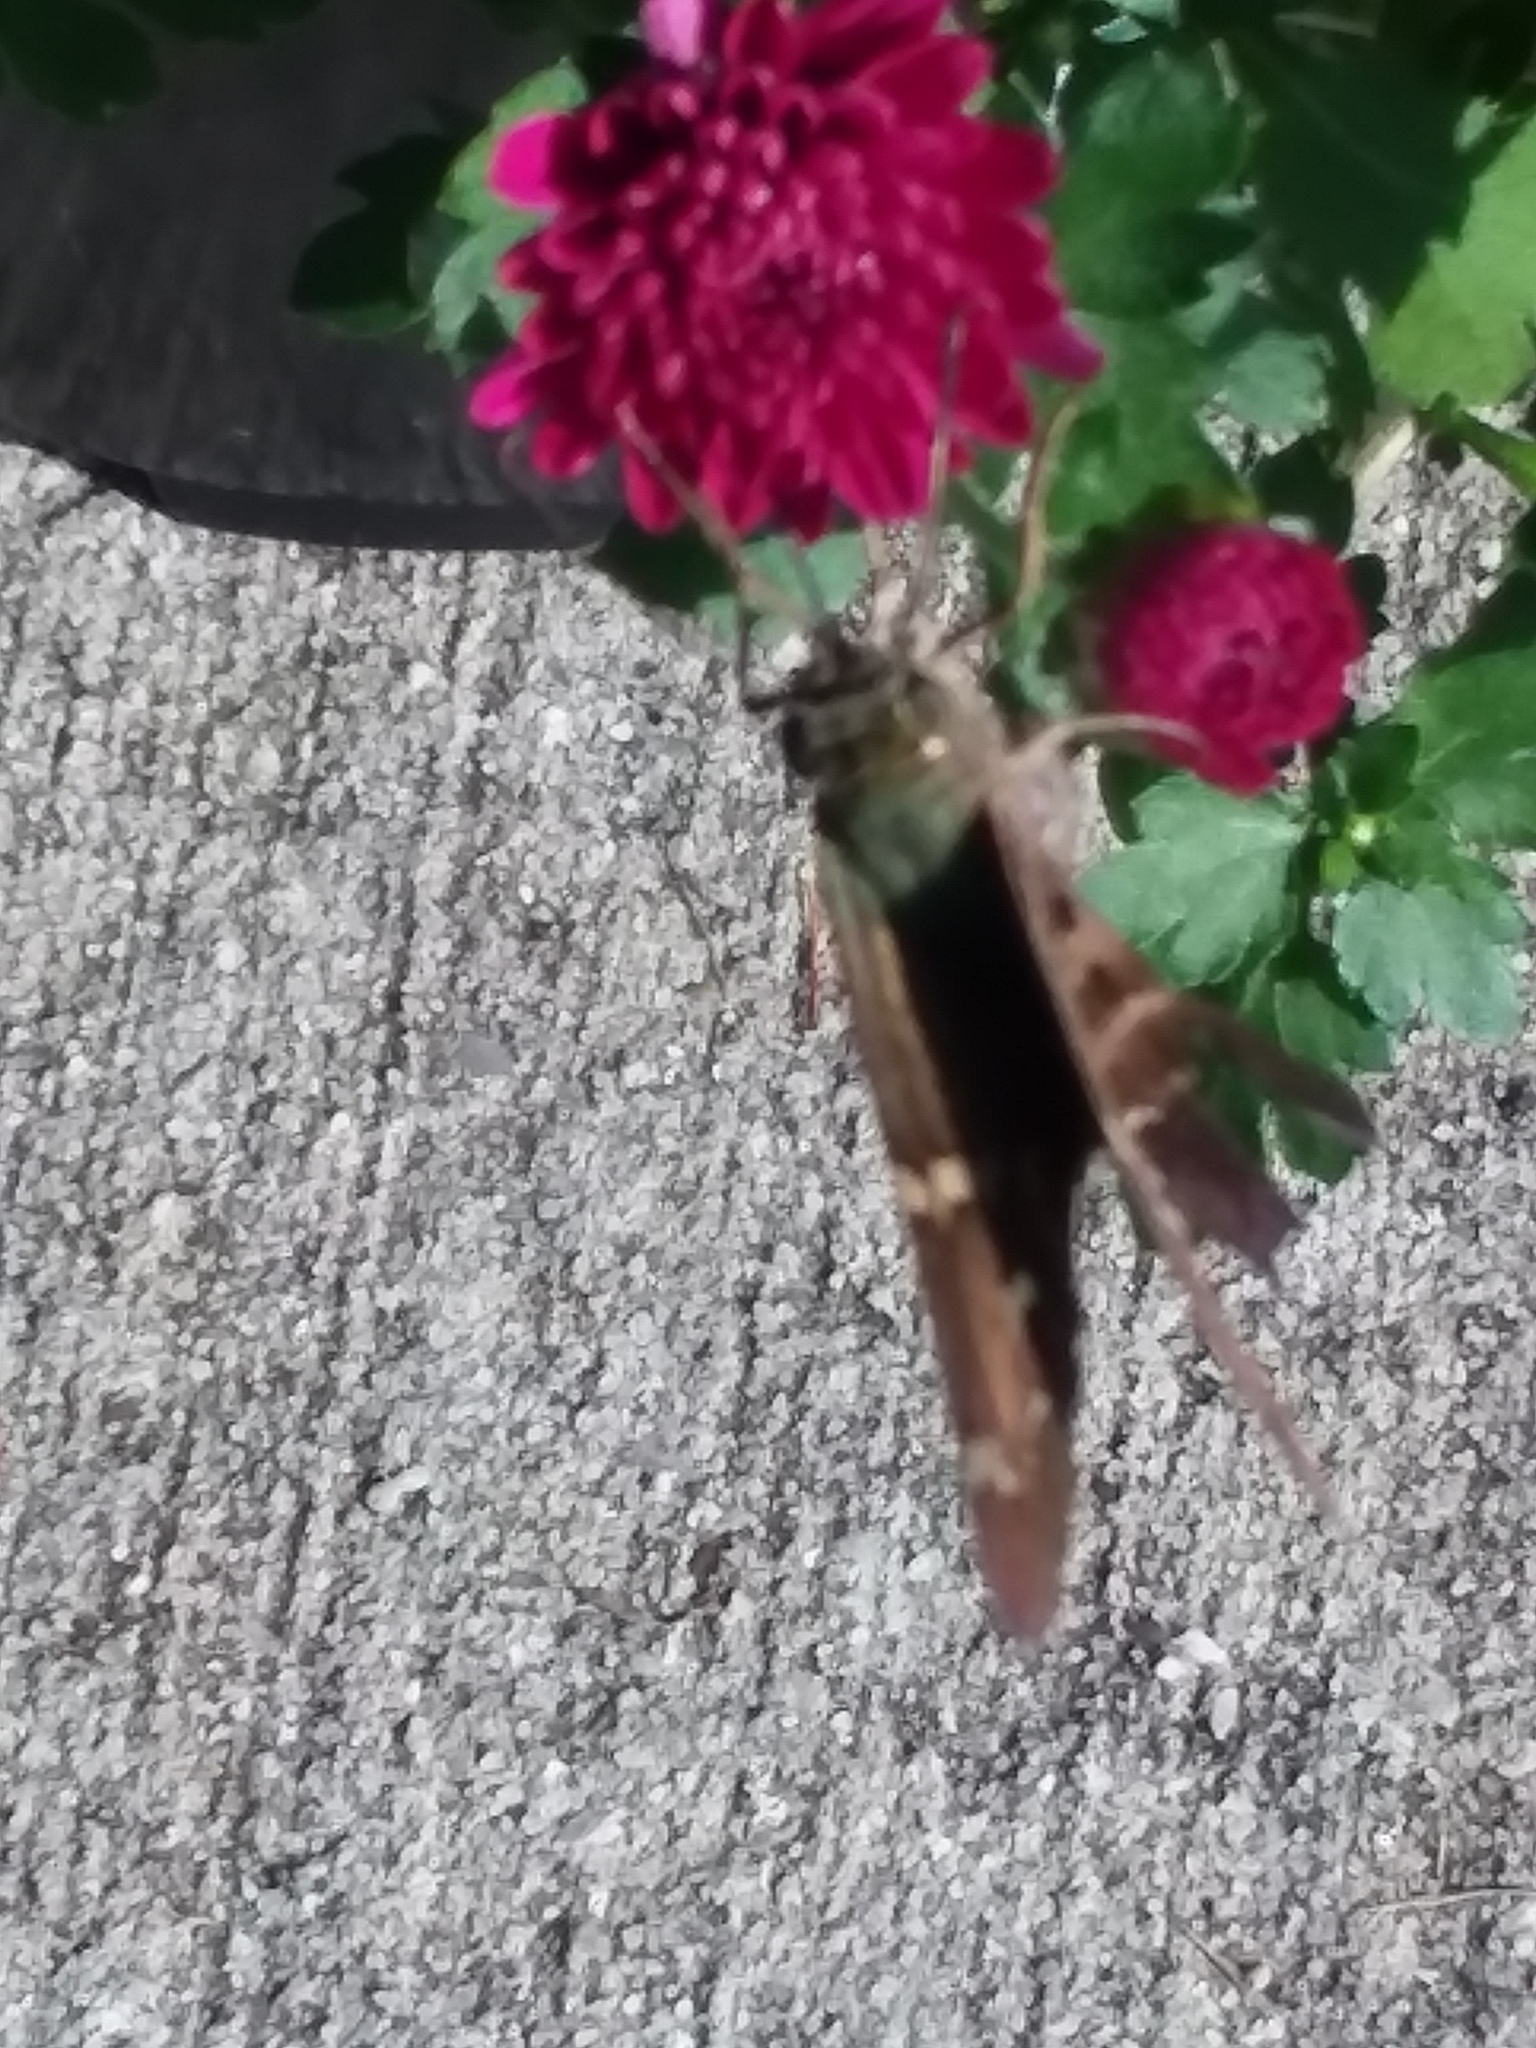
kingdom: Animalia
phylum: Arthropoda
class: Insecta
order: Lepidoptera
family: Hesperiidae
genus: Urbanus
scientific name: Urbanus proteus
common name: Long-tailed skipper
